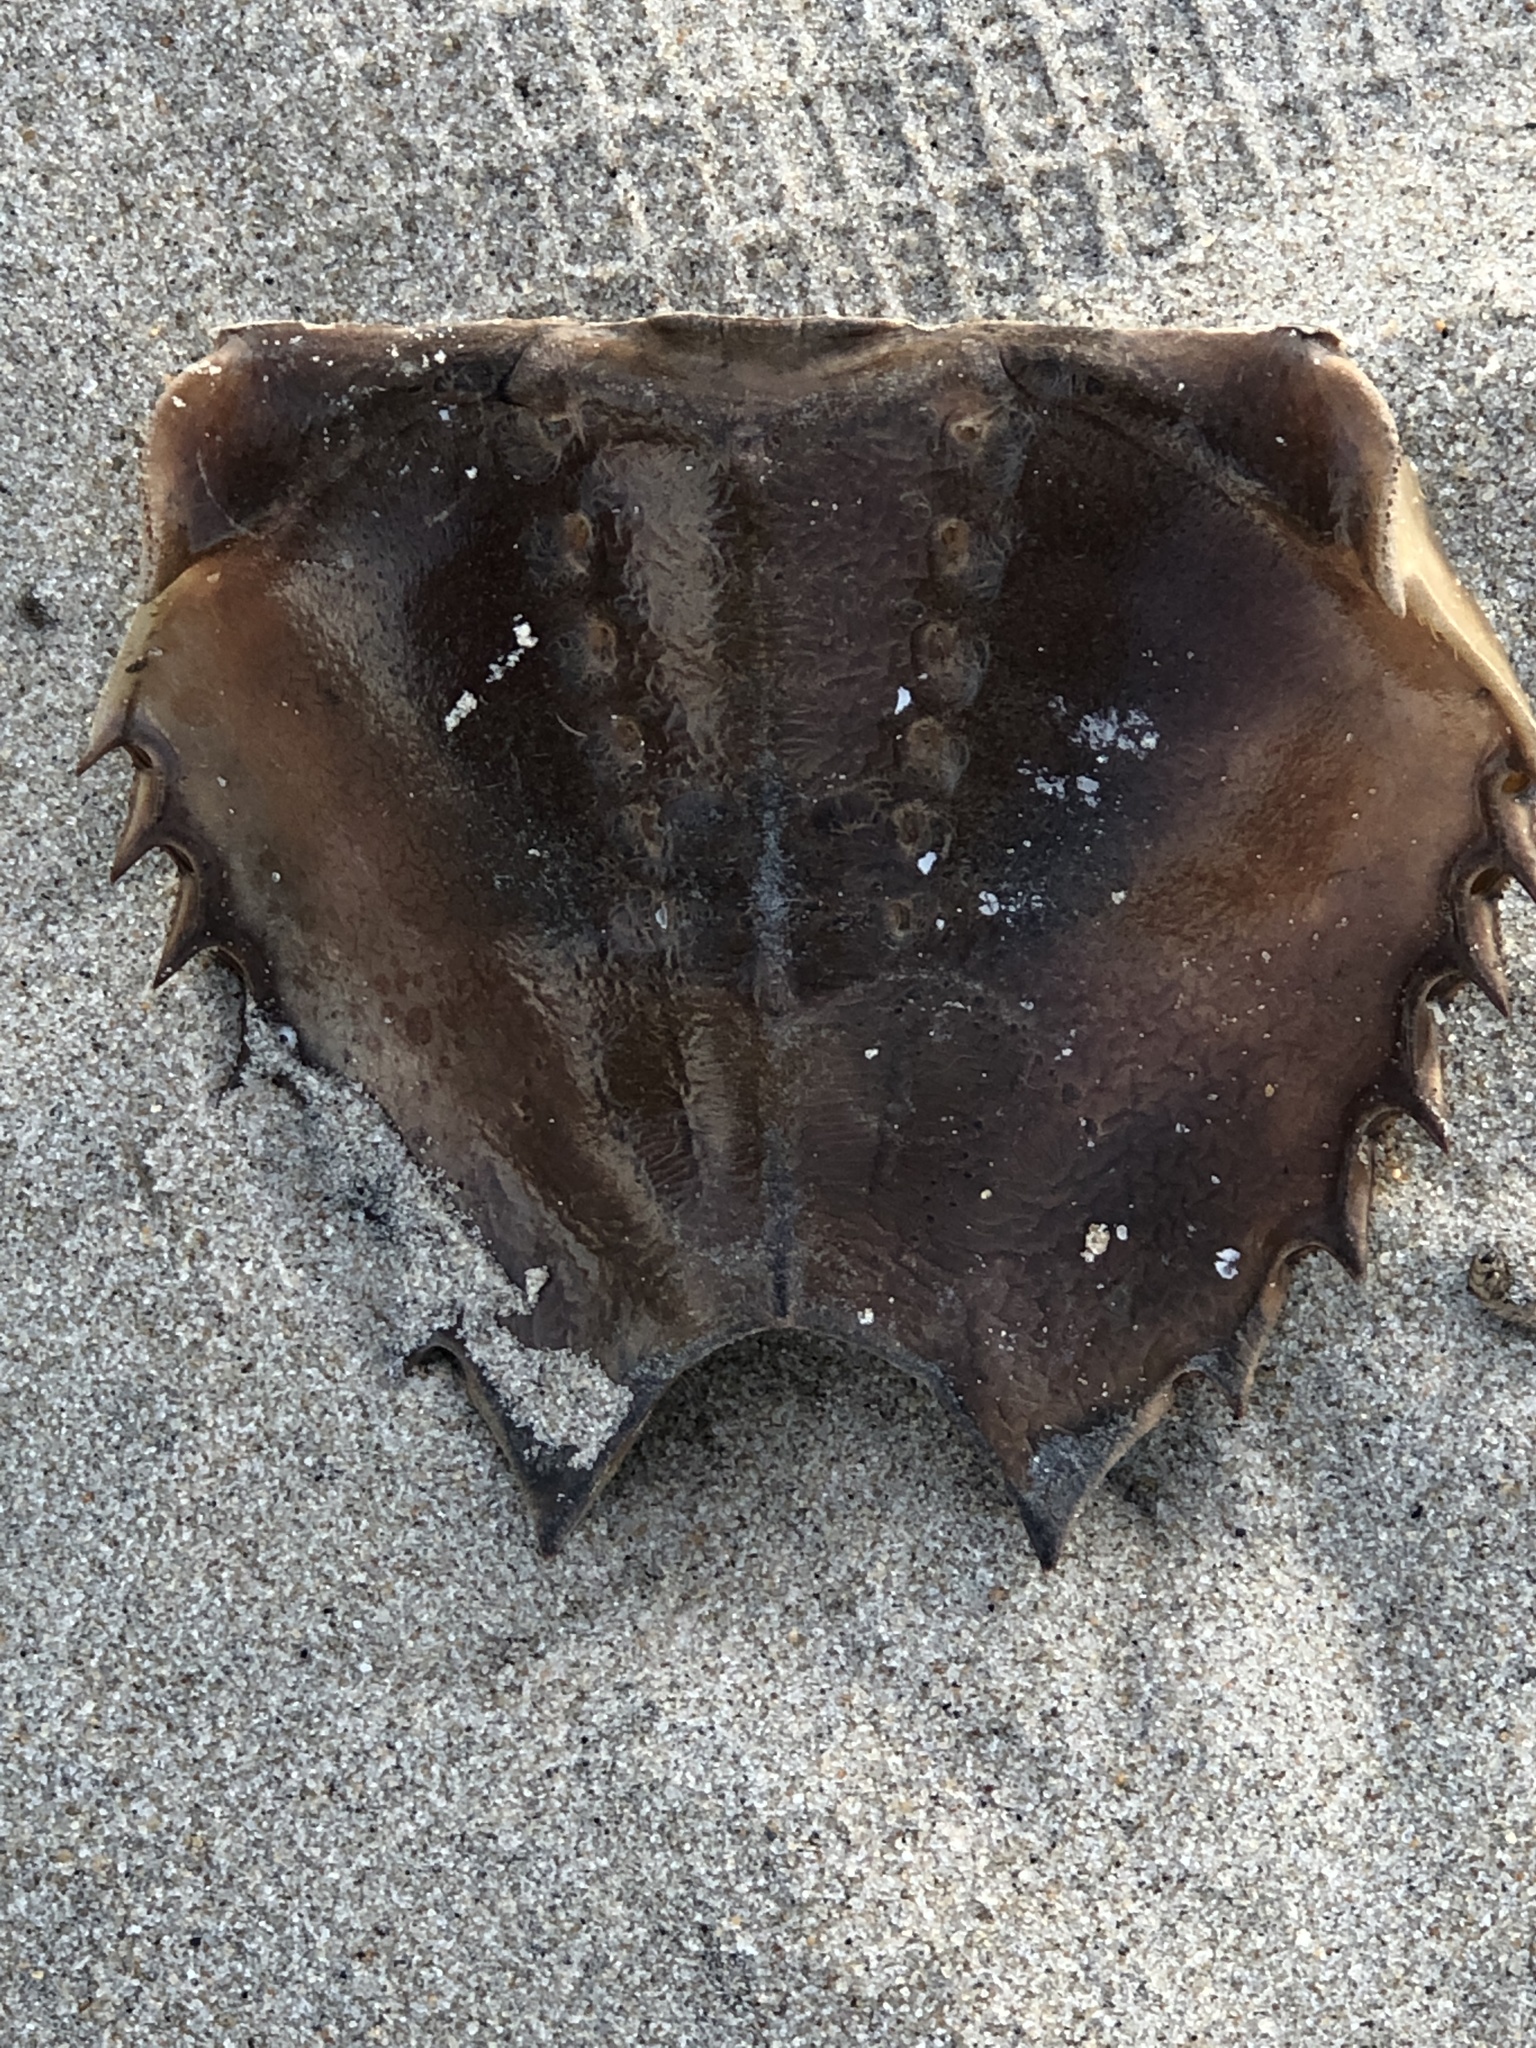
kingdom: Animalia
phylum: Arthropoda
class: Merostomata
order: Xiphosurida
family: Limulidae
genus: Limulus
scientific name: Limulus polyphemus
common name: Horseshoe crab
